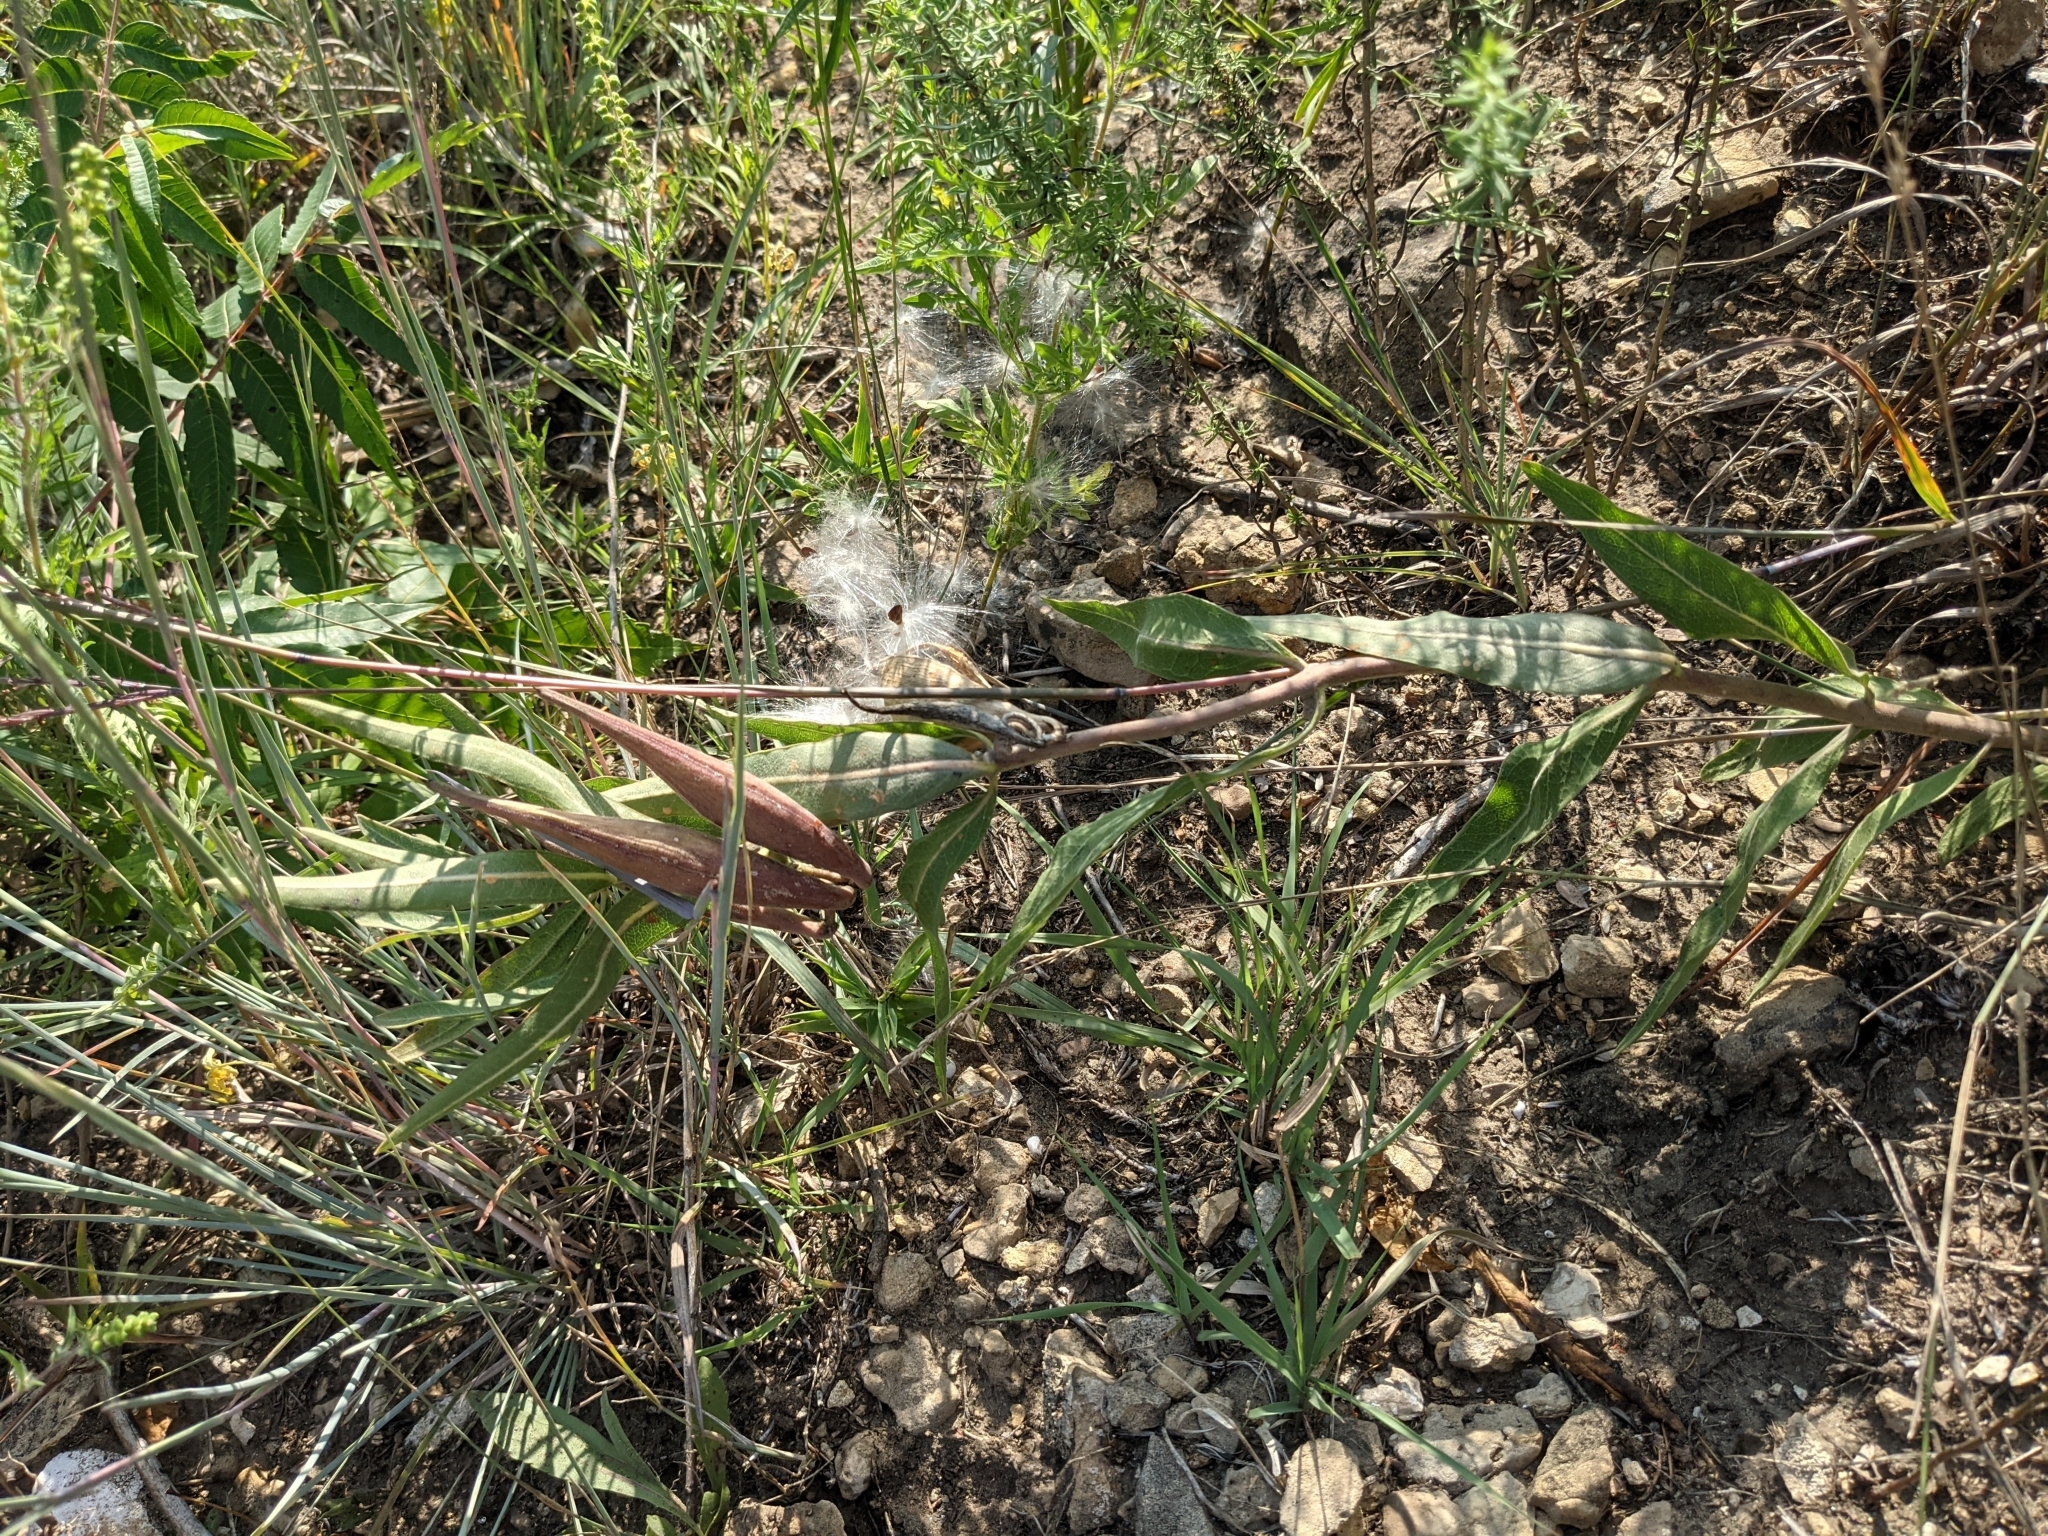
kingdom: Plantae
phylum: Tracheophyta
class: Magnoliopsida
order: Gentianales
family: Apocynaceae
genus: Asclepias
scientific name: Asclepias viridiflora
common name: Green comet milkweed
